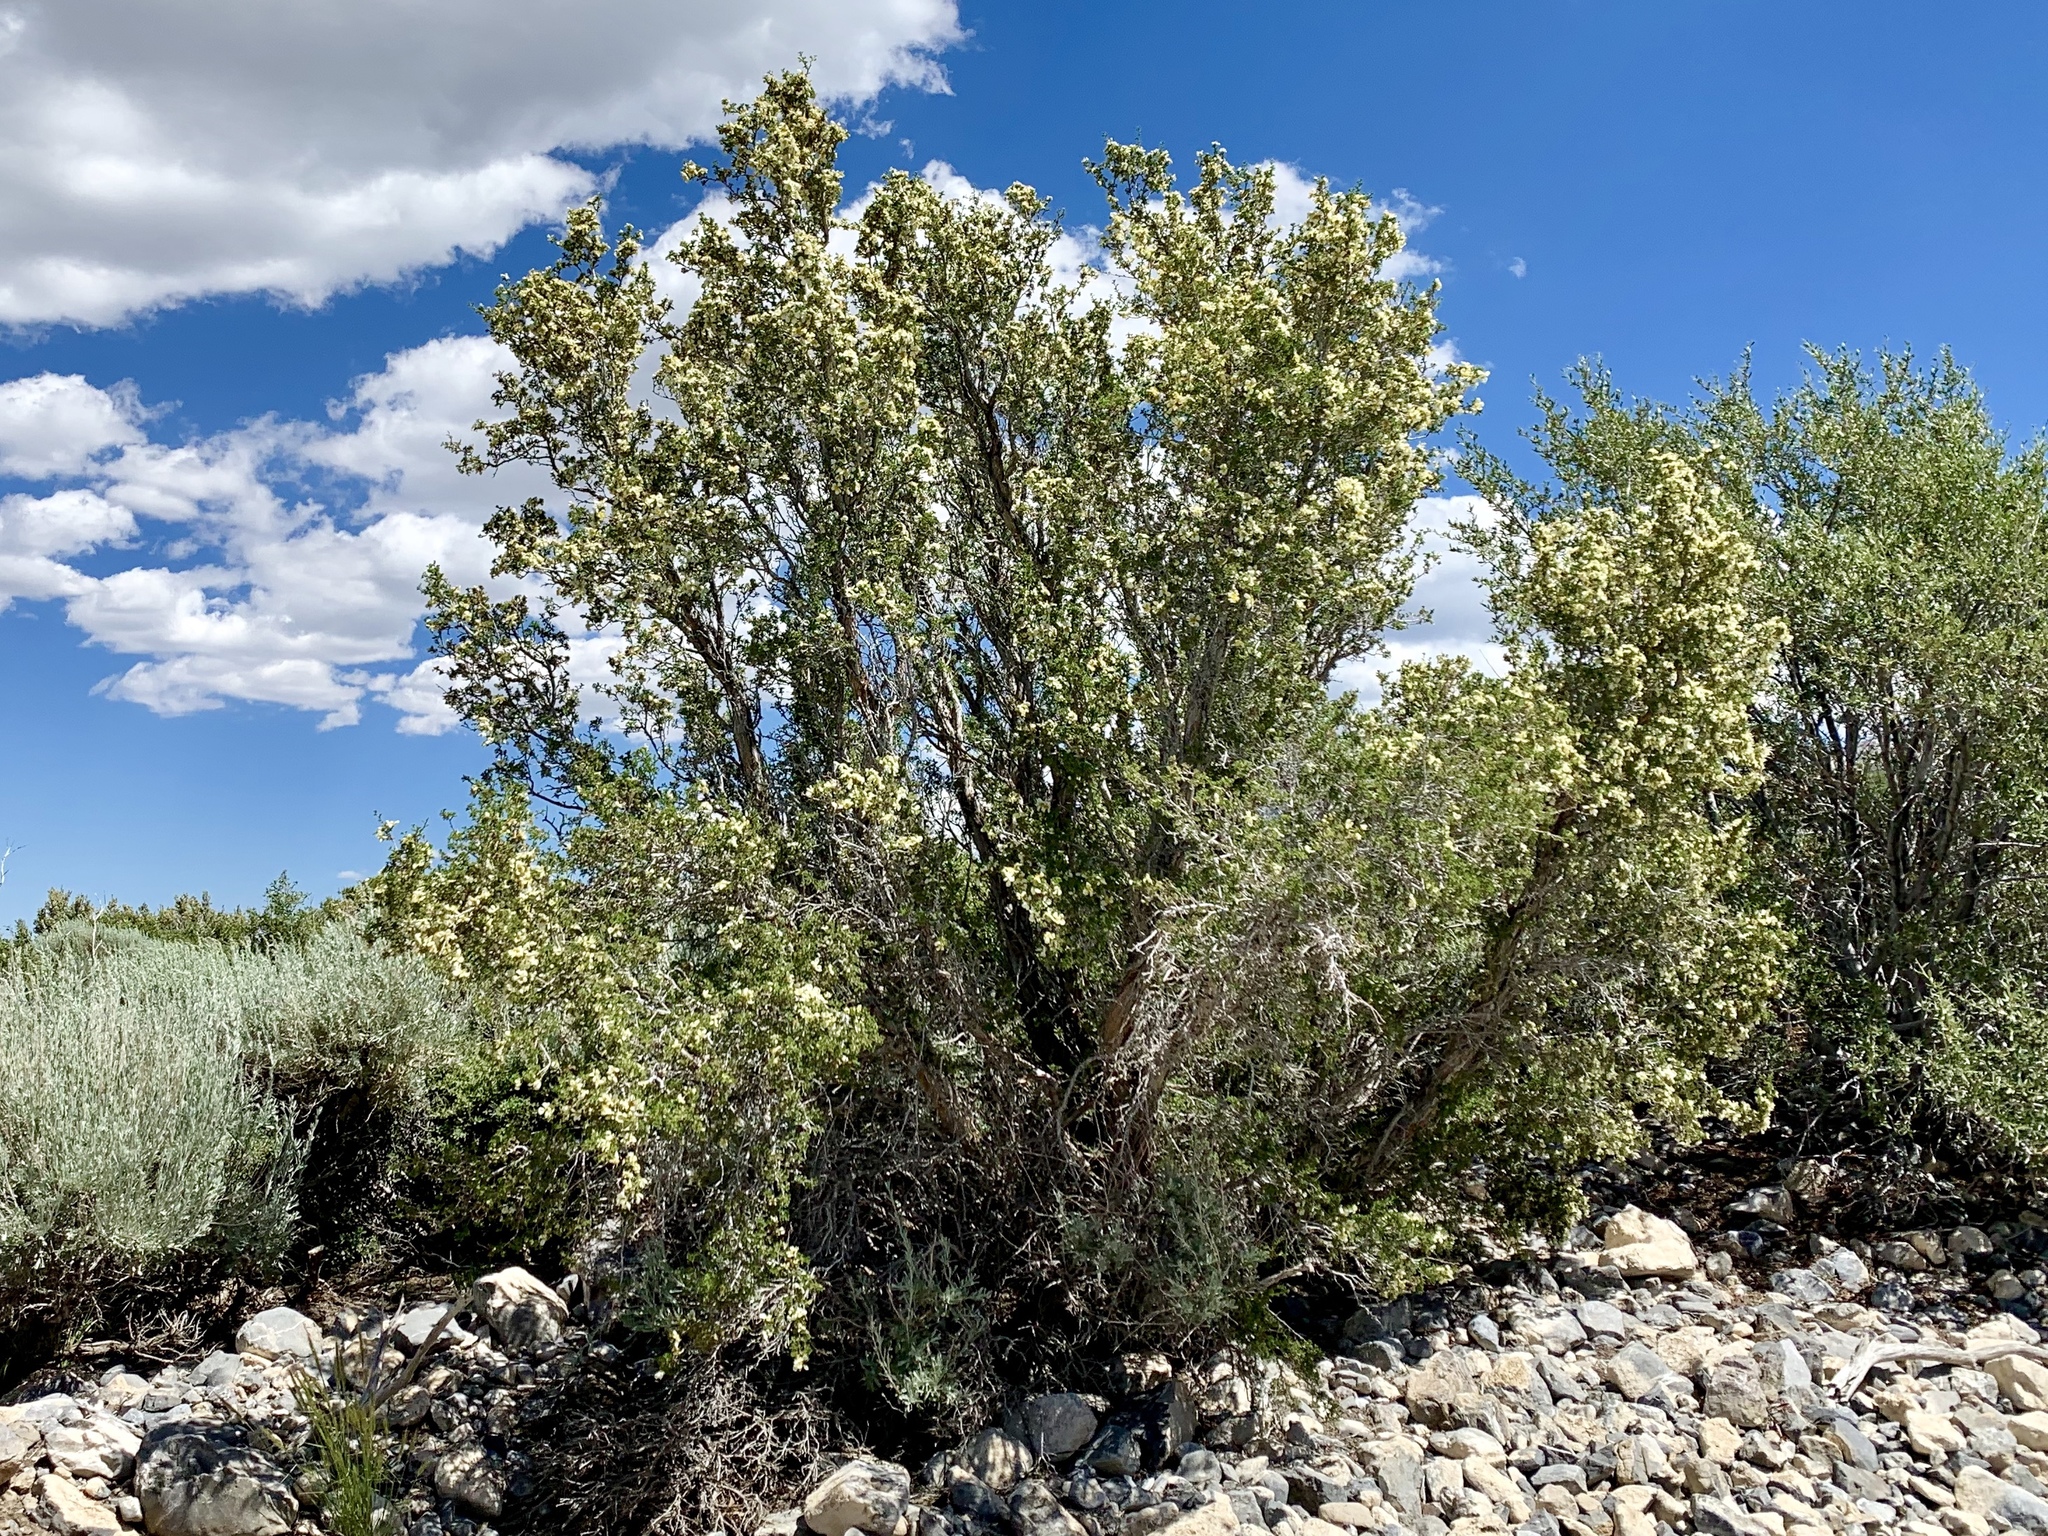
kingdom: Plantae
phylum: Tracheophyta
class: Magnoliopsida
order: Rosales
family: Rosaceae
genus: Purshia
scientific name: Purshia stansburiana
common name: Stansbury's cliffrose
